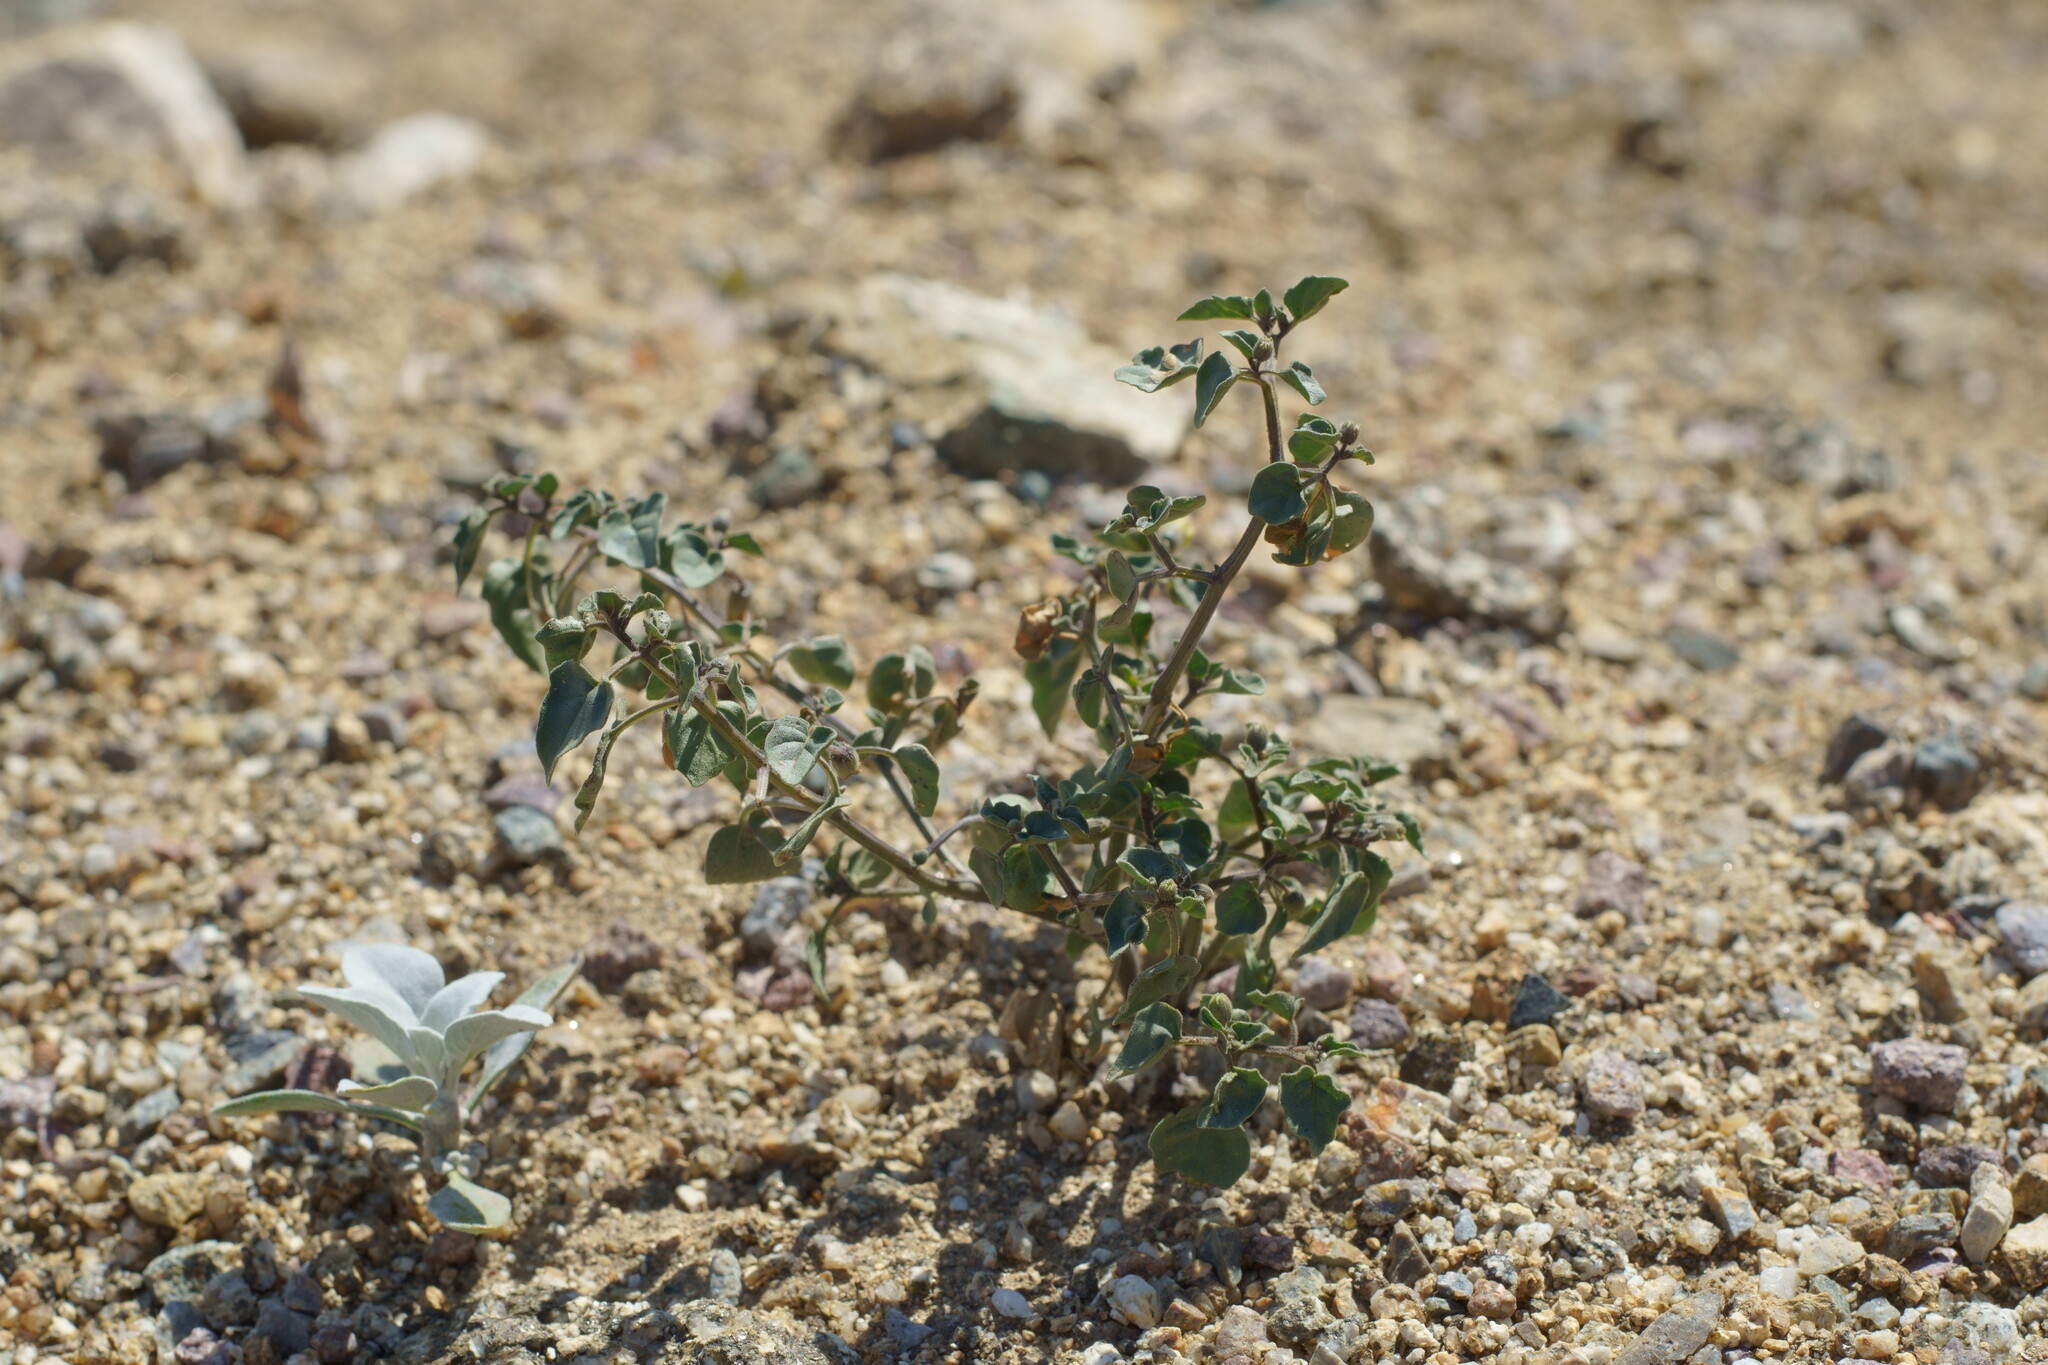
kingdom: Plantae
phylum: Tracheophyta
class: Magnoliopsida
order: Solanales
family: Solanaceae
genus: Physalis
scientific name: Physalis crassifolia
